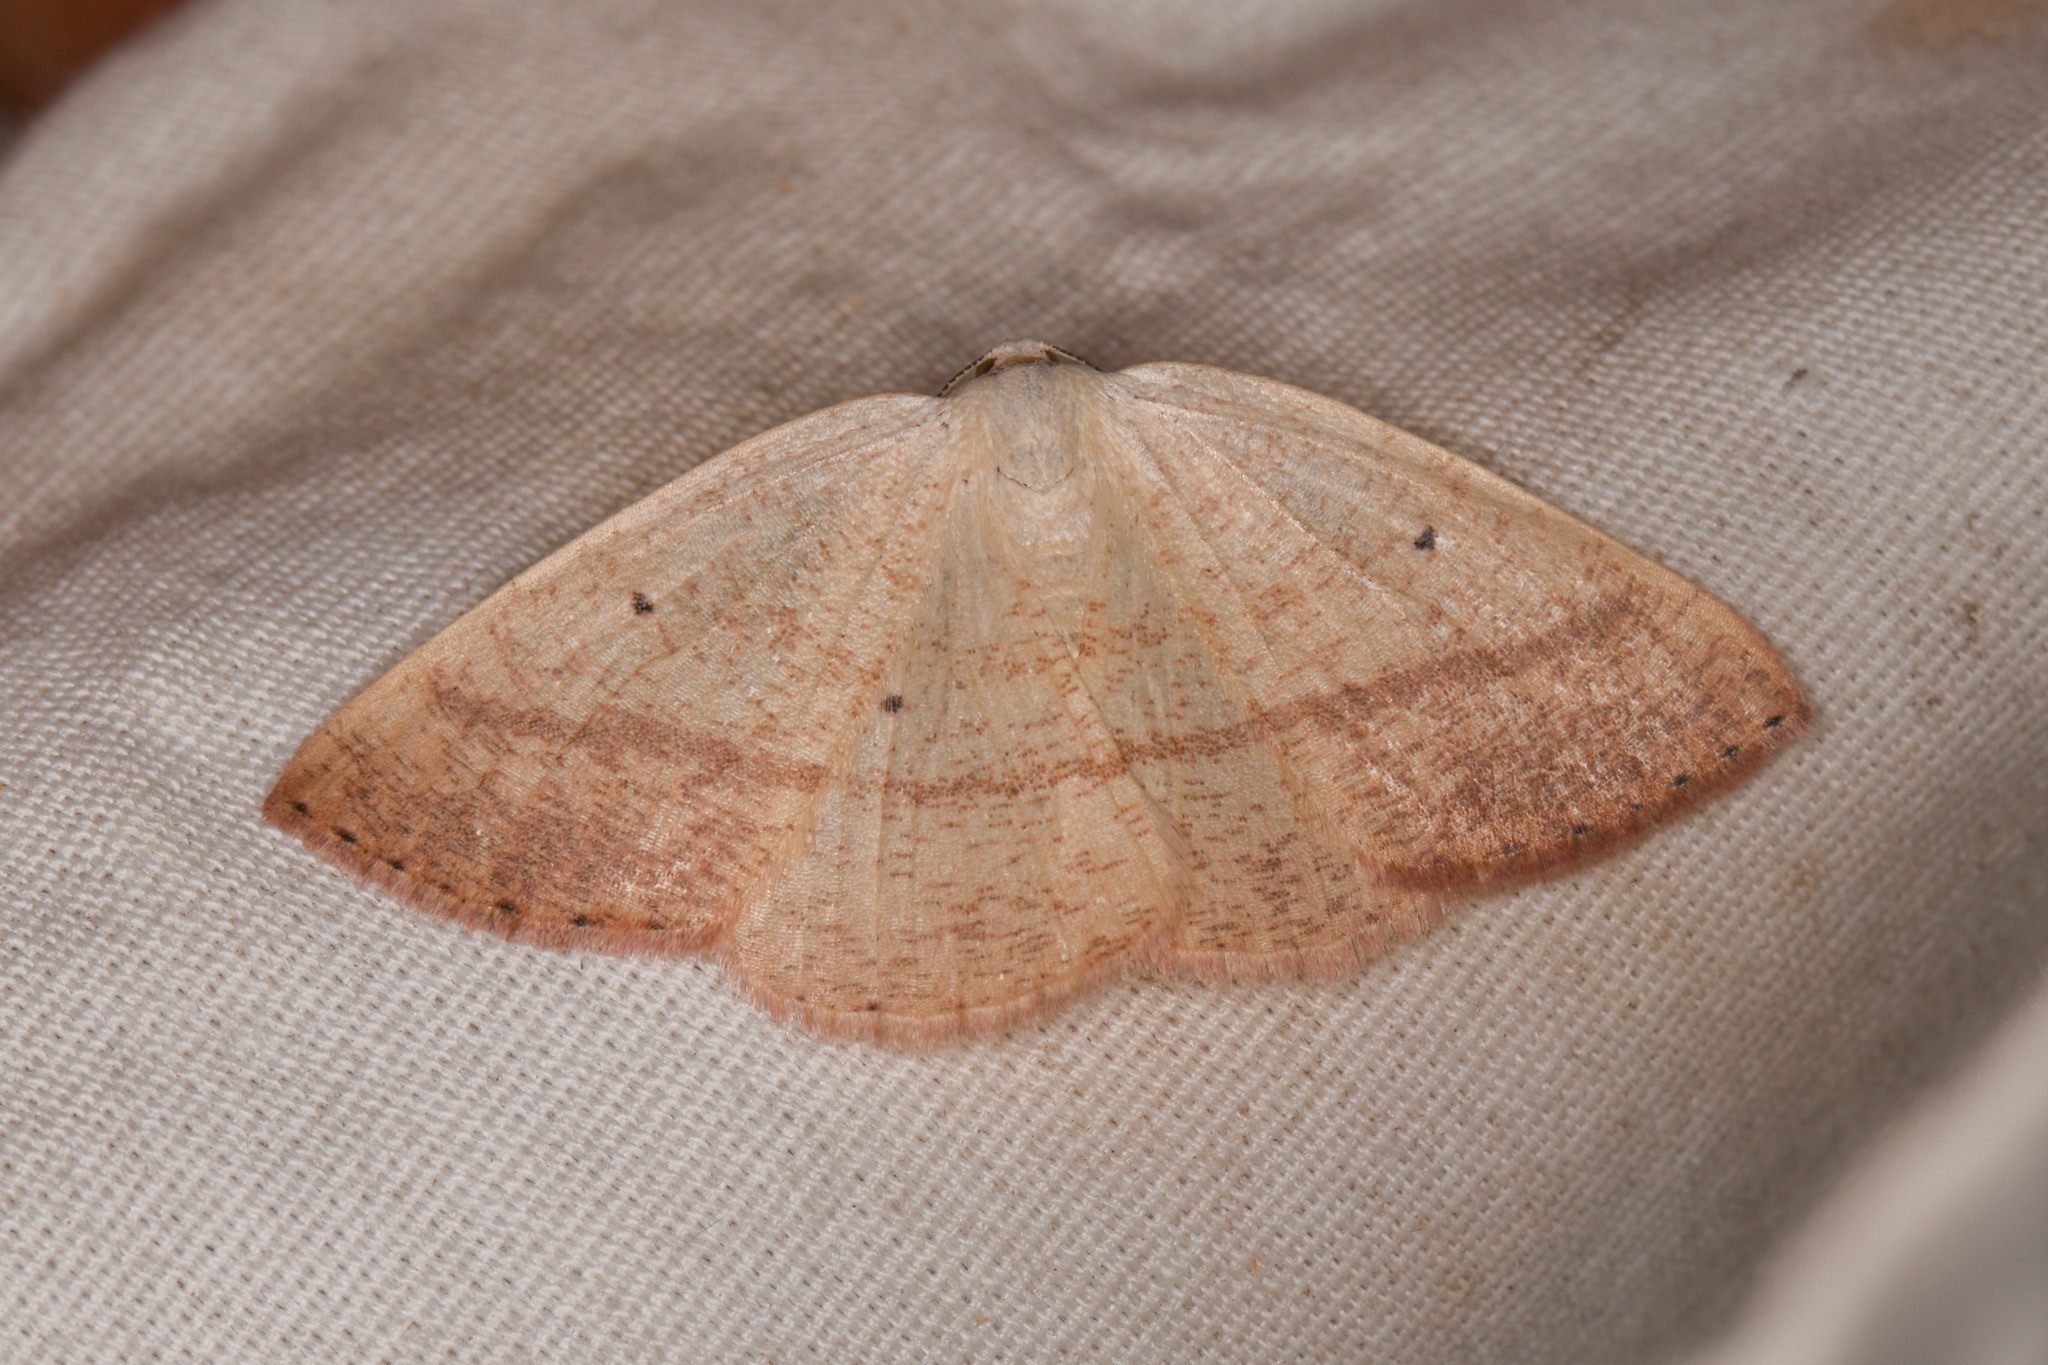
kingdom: Animalia
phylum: Arthropoda
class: Insecta
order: Lepidoptera
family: Geometridae
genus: Eudrepanulatrix
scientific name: Eudrepanulatrix rectifascia
